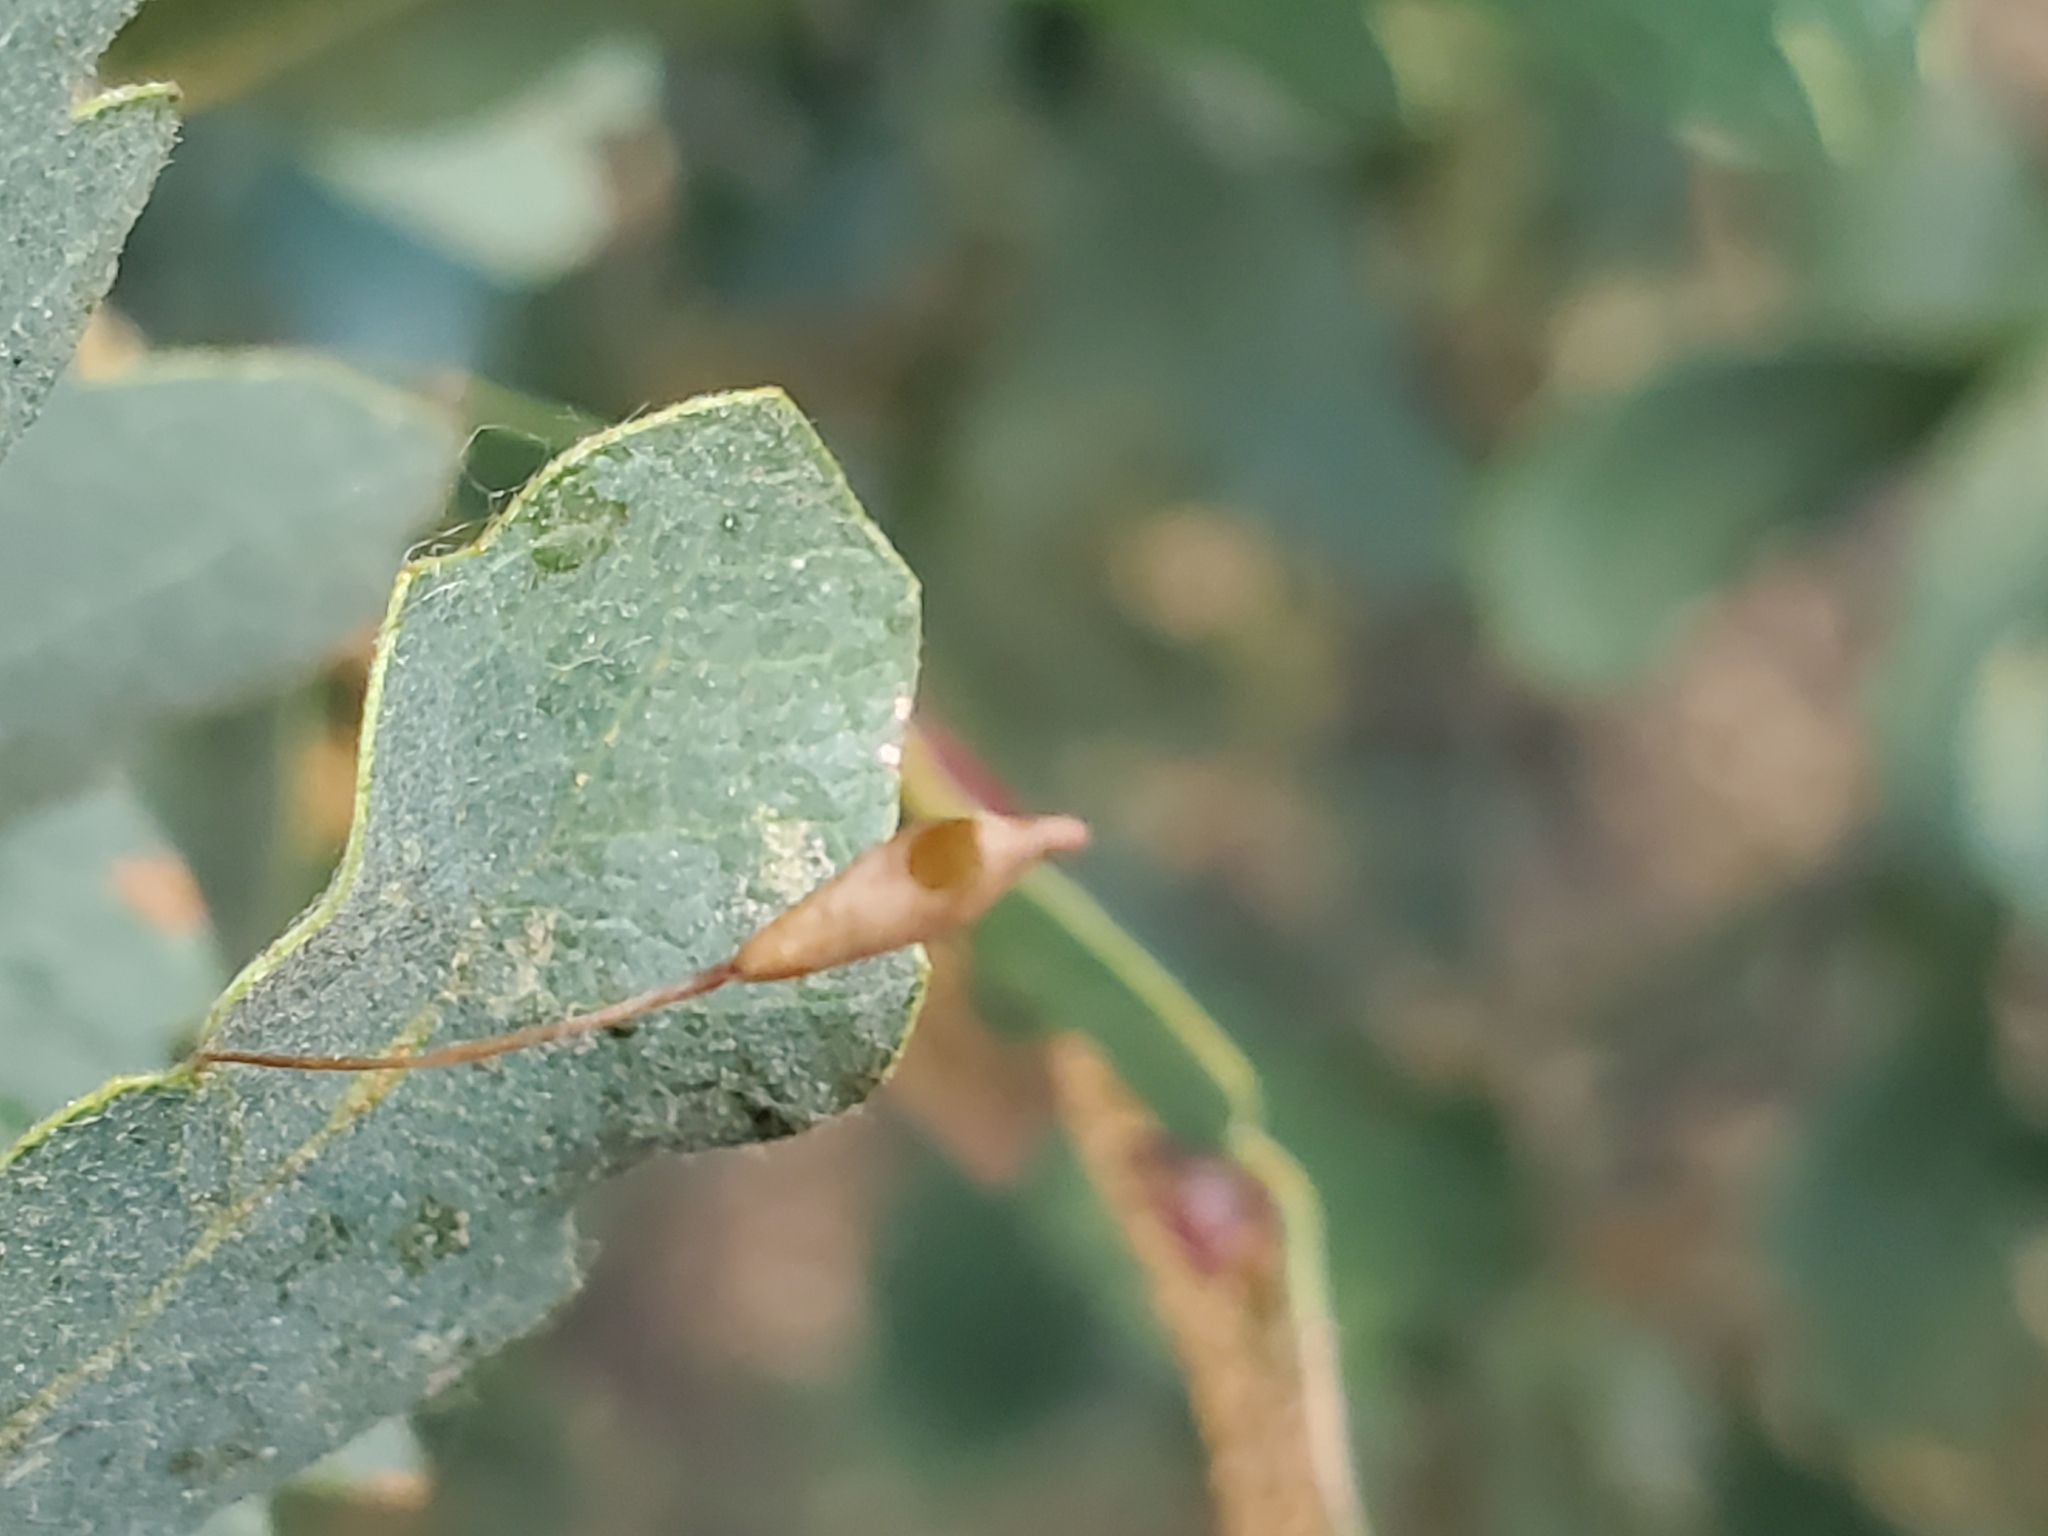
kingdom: Animalia
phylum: Arthropoda
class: Insecta
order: Hymenoptera
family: Cynipidae
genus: Andricus
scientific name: Andricus
